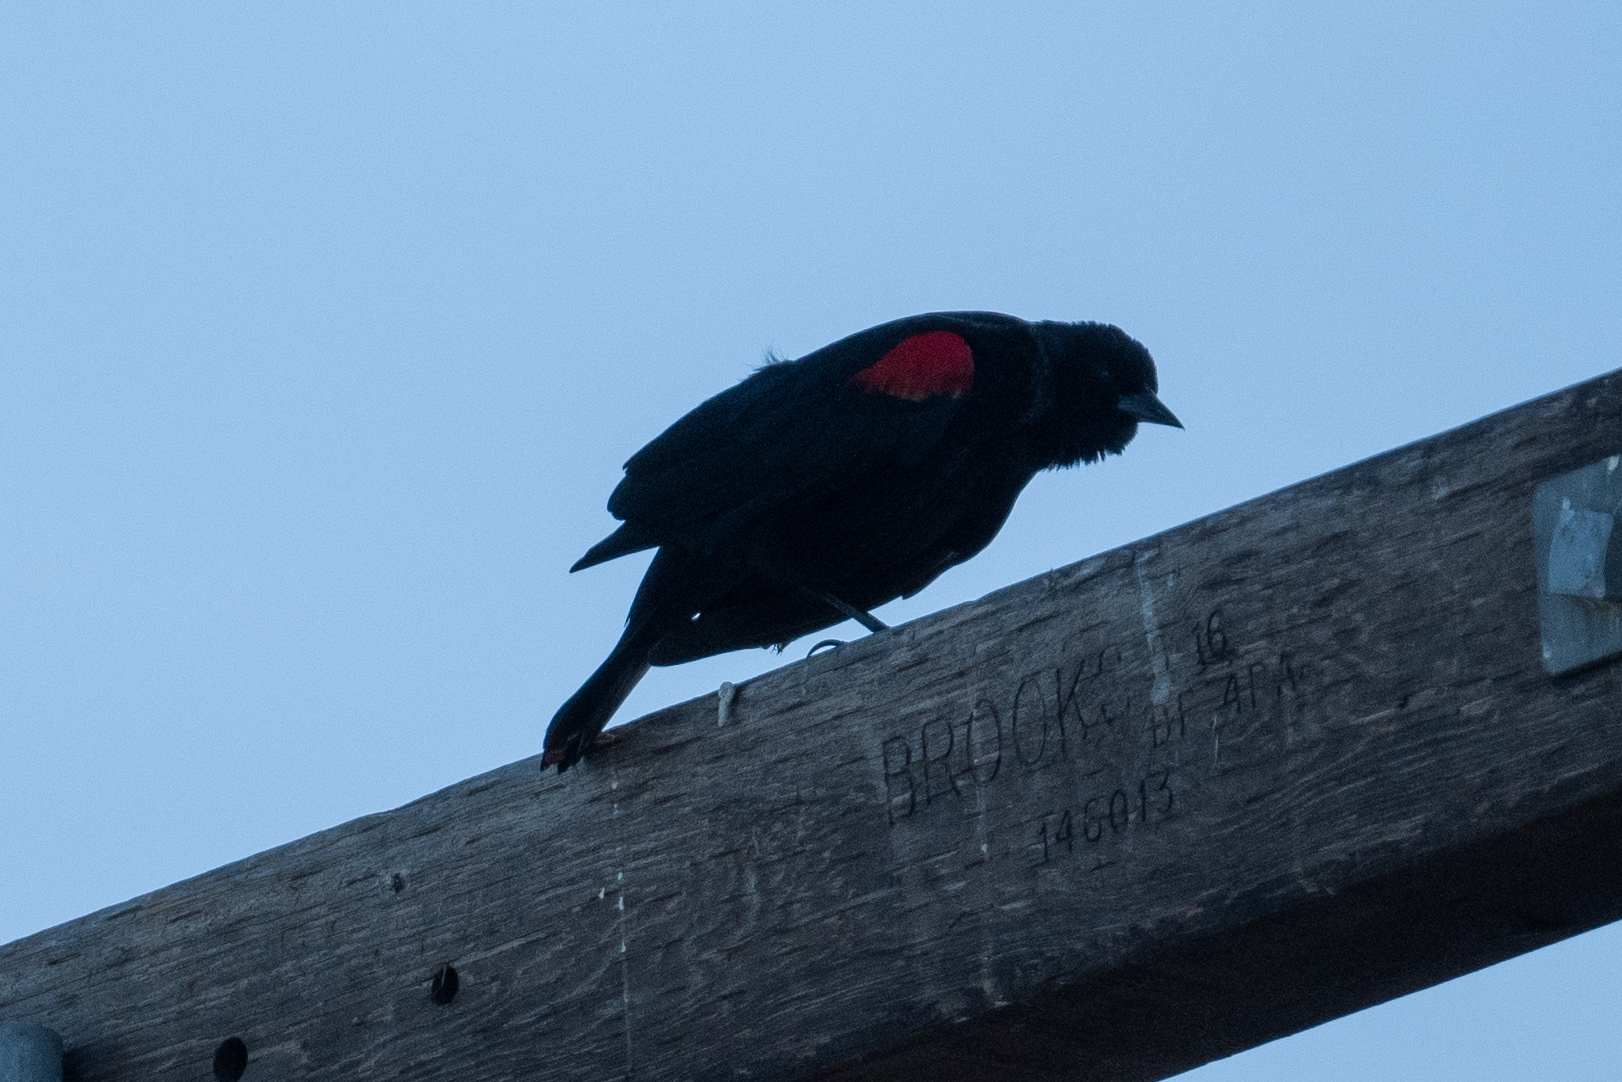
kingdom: Animalia
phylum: Chordata
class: Aves
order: Passeriformes
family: Icteridae
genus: Agelaius
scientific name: Agelaius phoeniceus
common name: Red-winged blackbird
